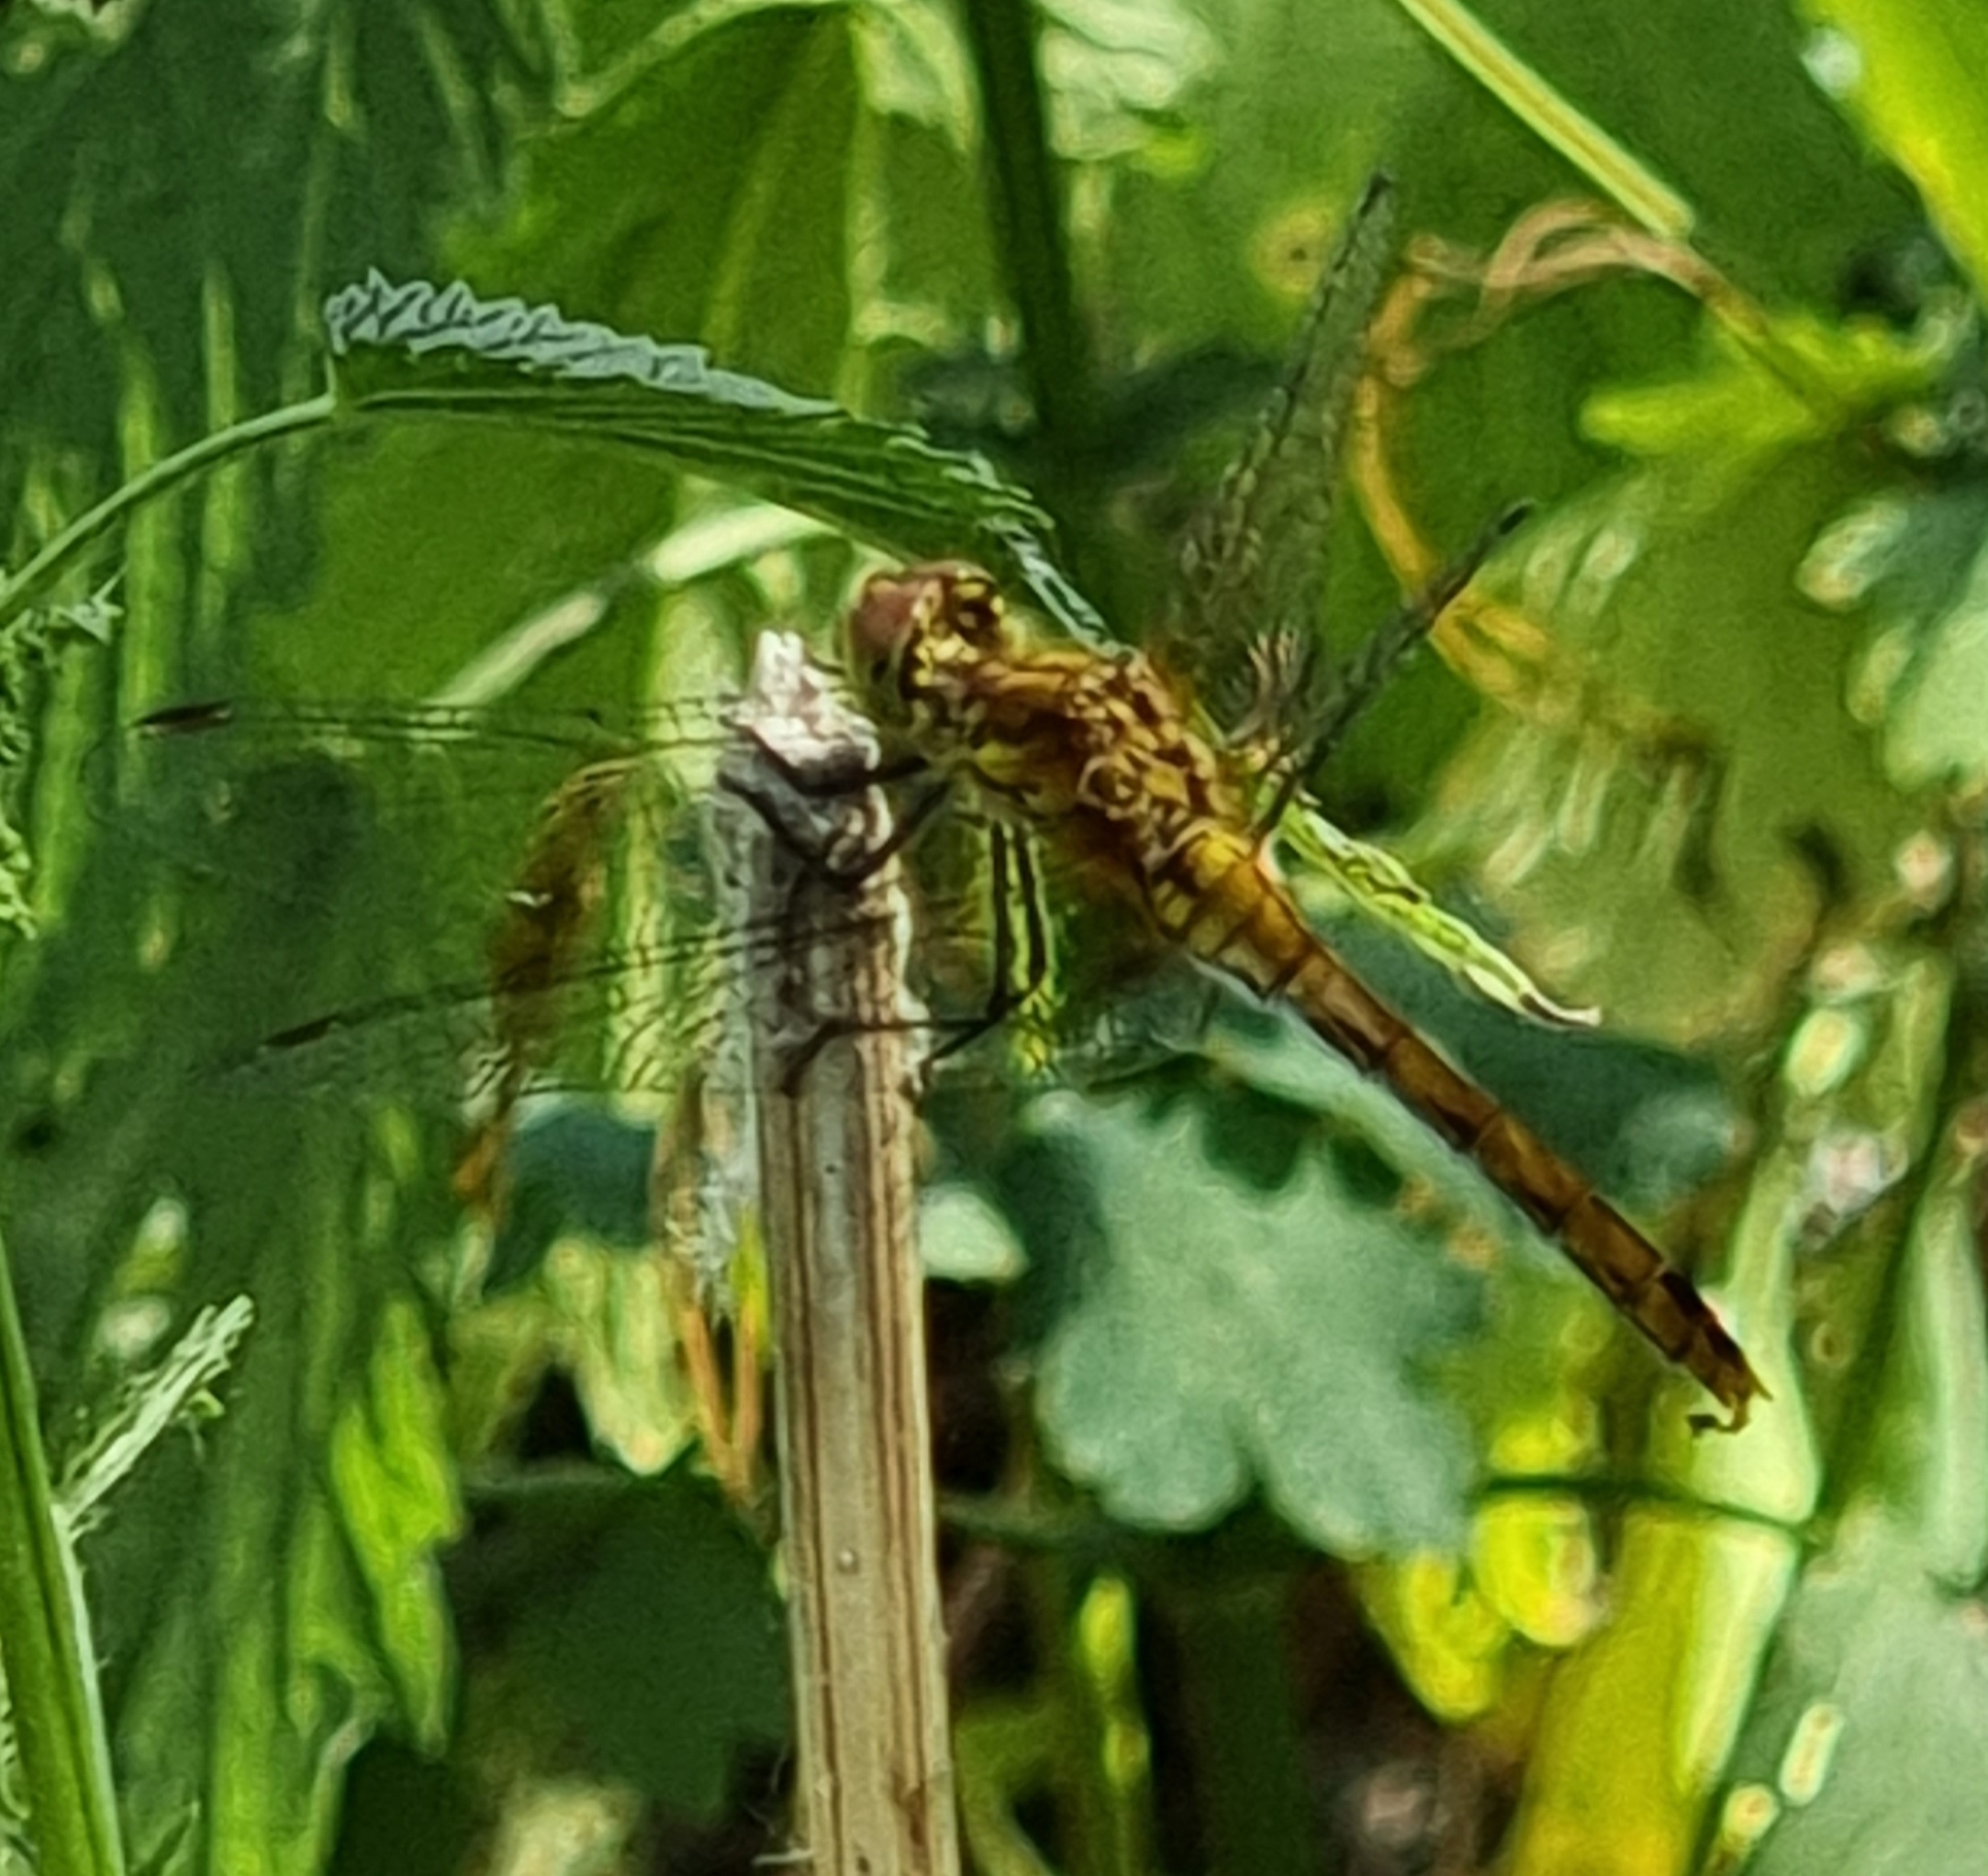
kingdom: Animalia
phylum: Arthropoda
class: Insecta
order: Odonata
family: Libellulidae
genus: Sympetrum
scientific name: Sympetrum sanguineum
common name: Ruddy darter
